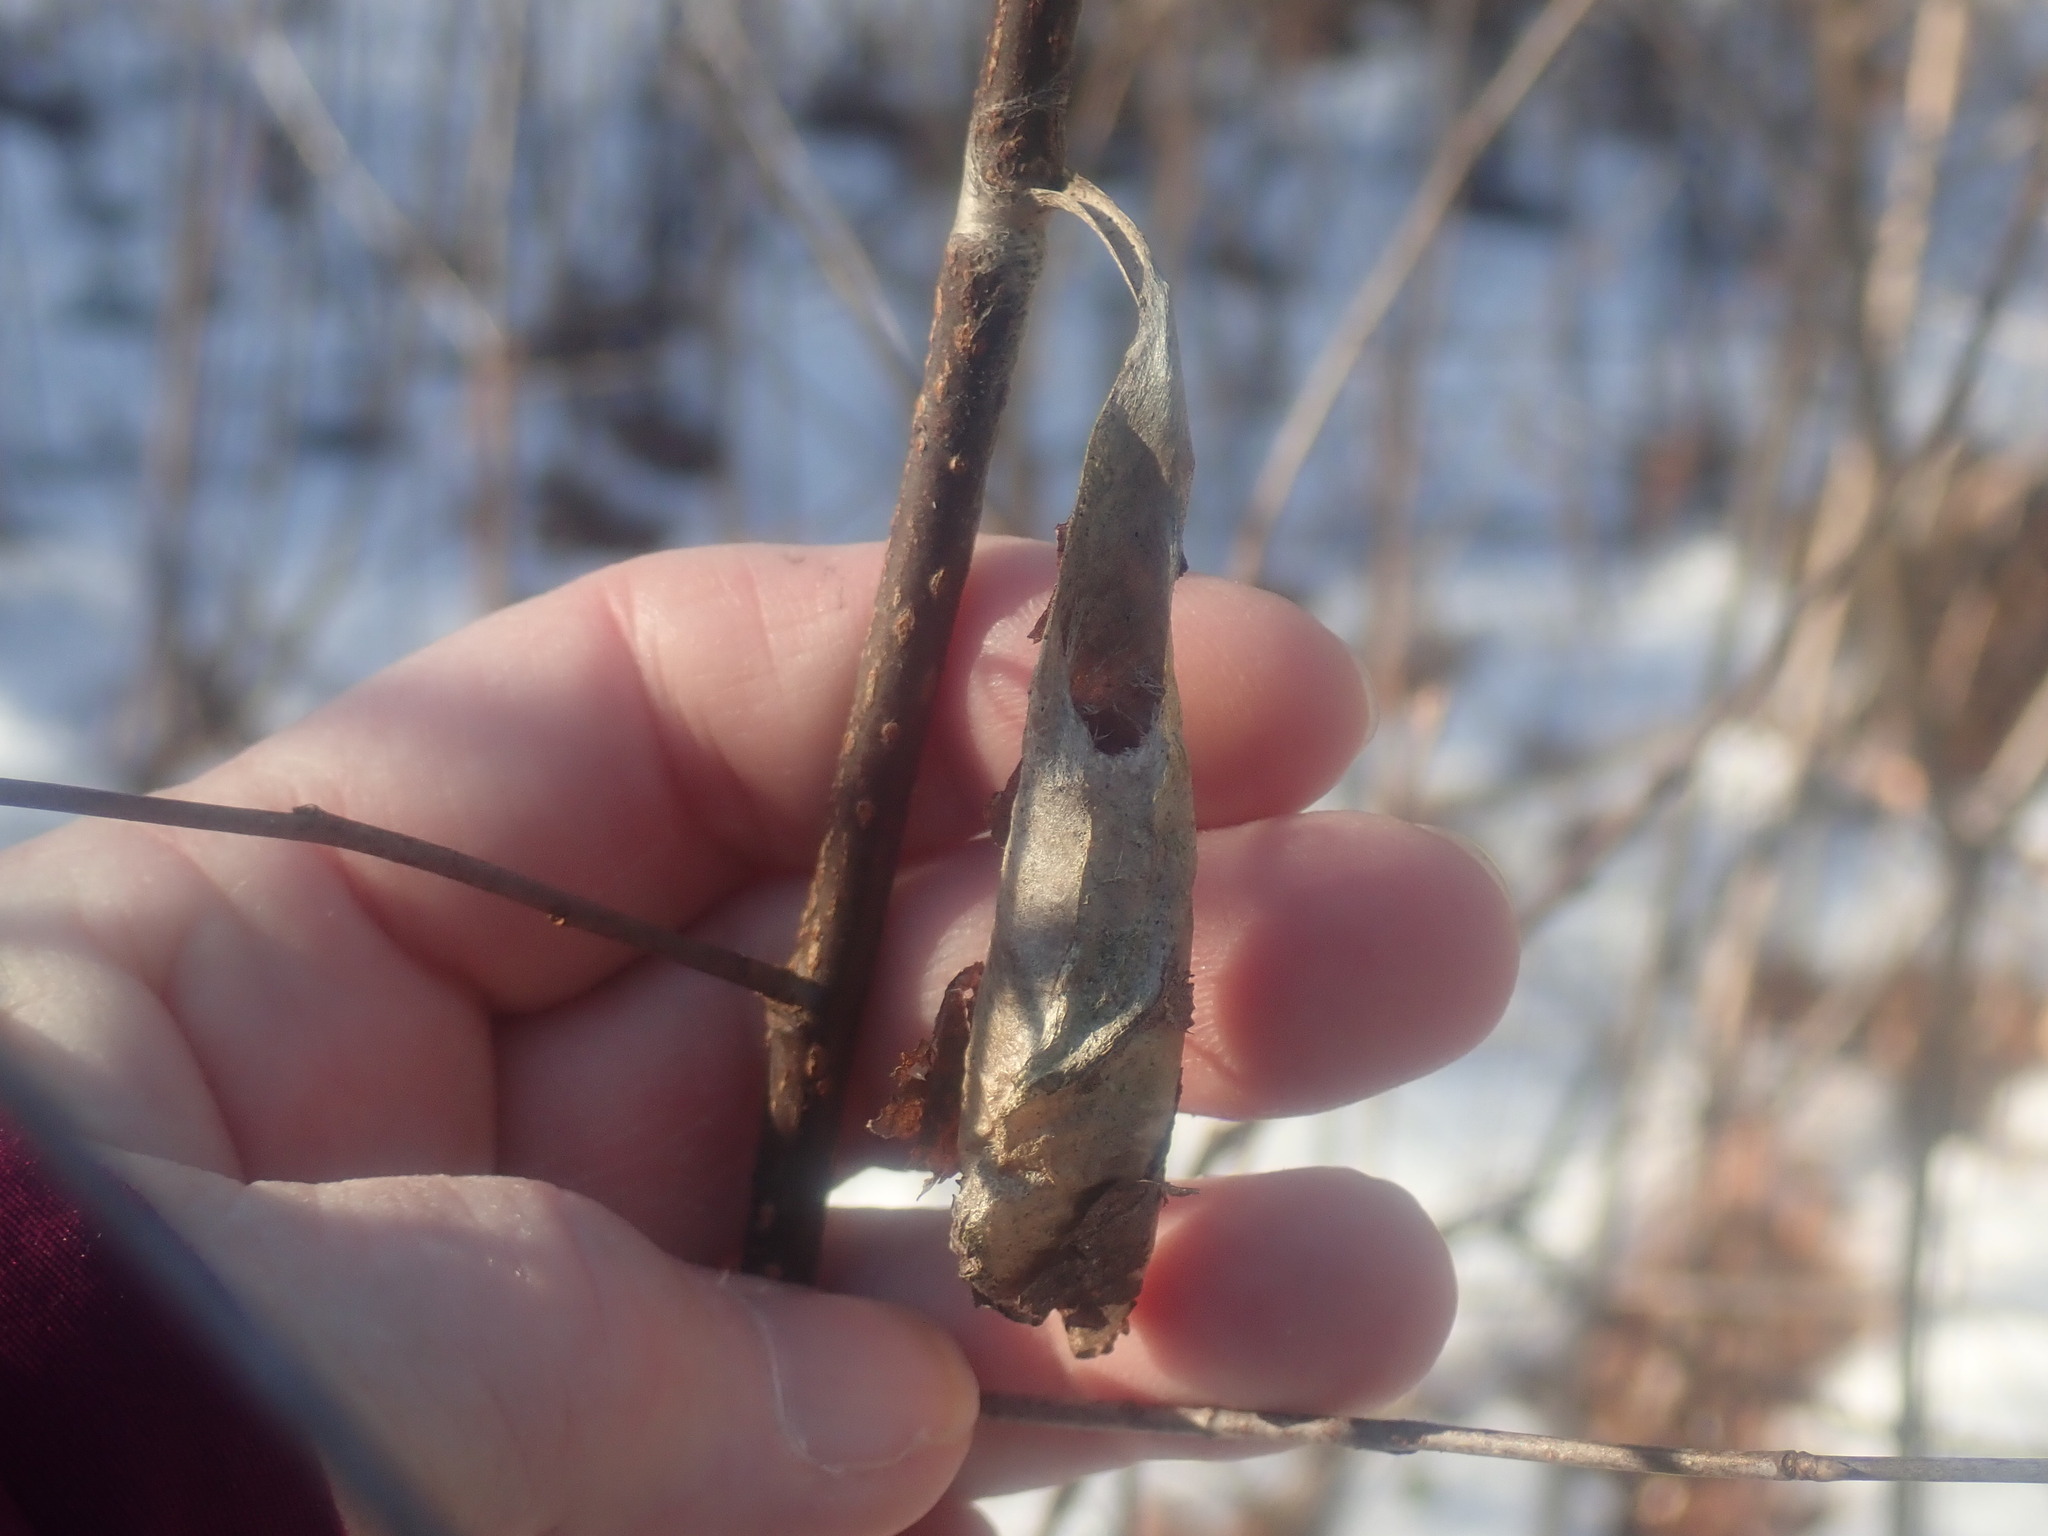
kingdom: Animalia
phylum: Arthropoda
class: Insecta
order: Lepidoptera
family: Saturniidae
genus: Callosamia
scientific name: Callosamia promethea
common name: Promethea silkmoth
